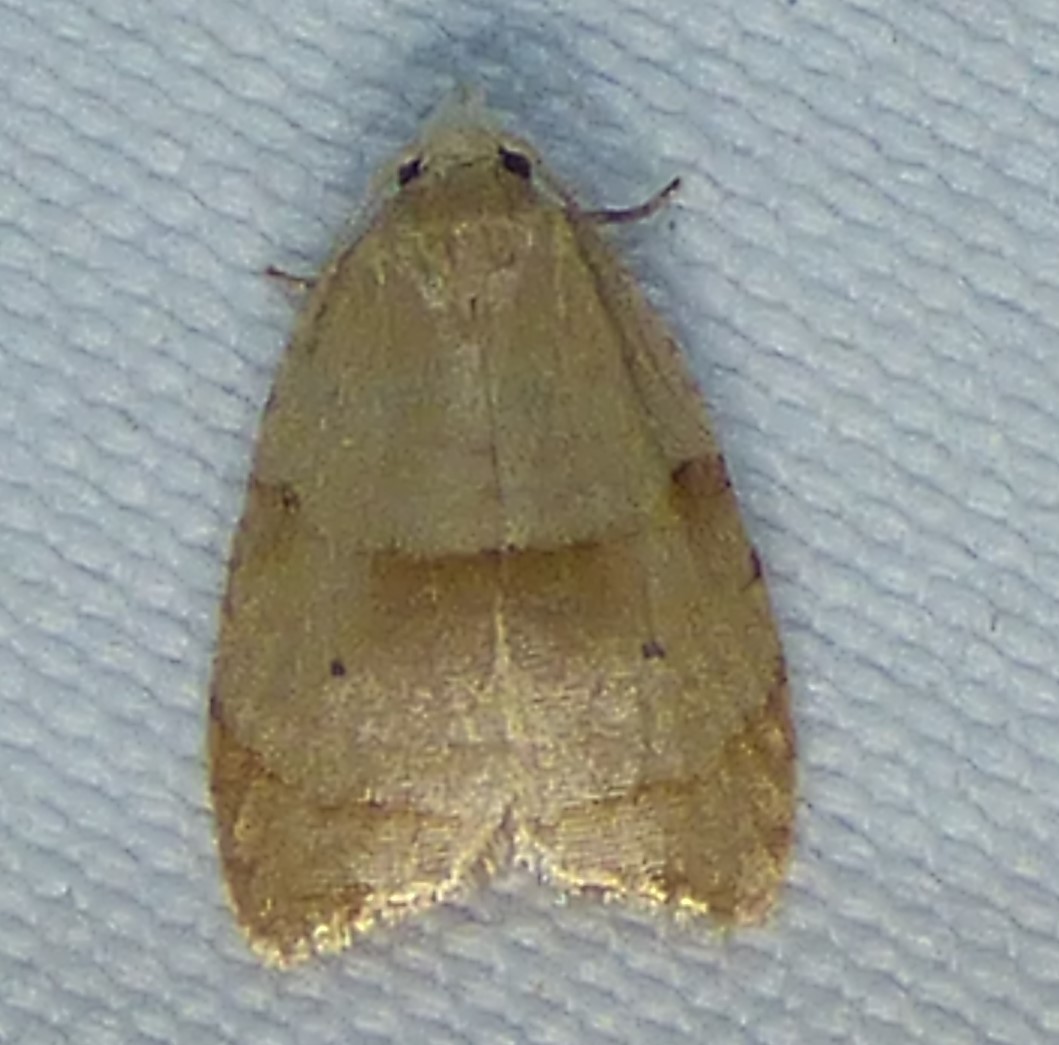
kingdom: Animalia
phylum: Arthropoda
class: Insecta
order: Lepidoptera
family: Tortricidae
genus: Coelostathma
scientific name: Coelostathma discopunctana
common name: Batman moth
